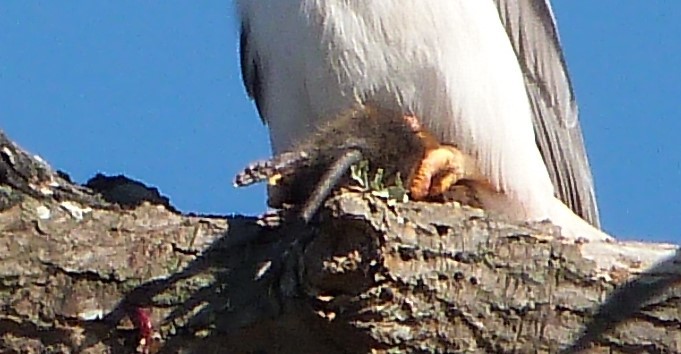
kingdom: Animalia
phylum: Chordata
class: Mammalia
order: Rodentia
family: Muridae
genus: Rattus
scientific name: Rattus lutreolus
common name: Australian swamp rat
